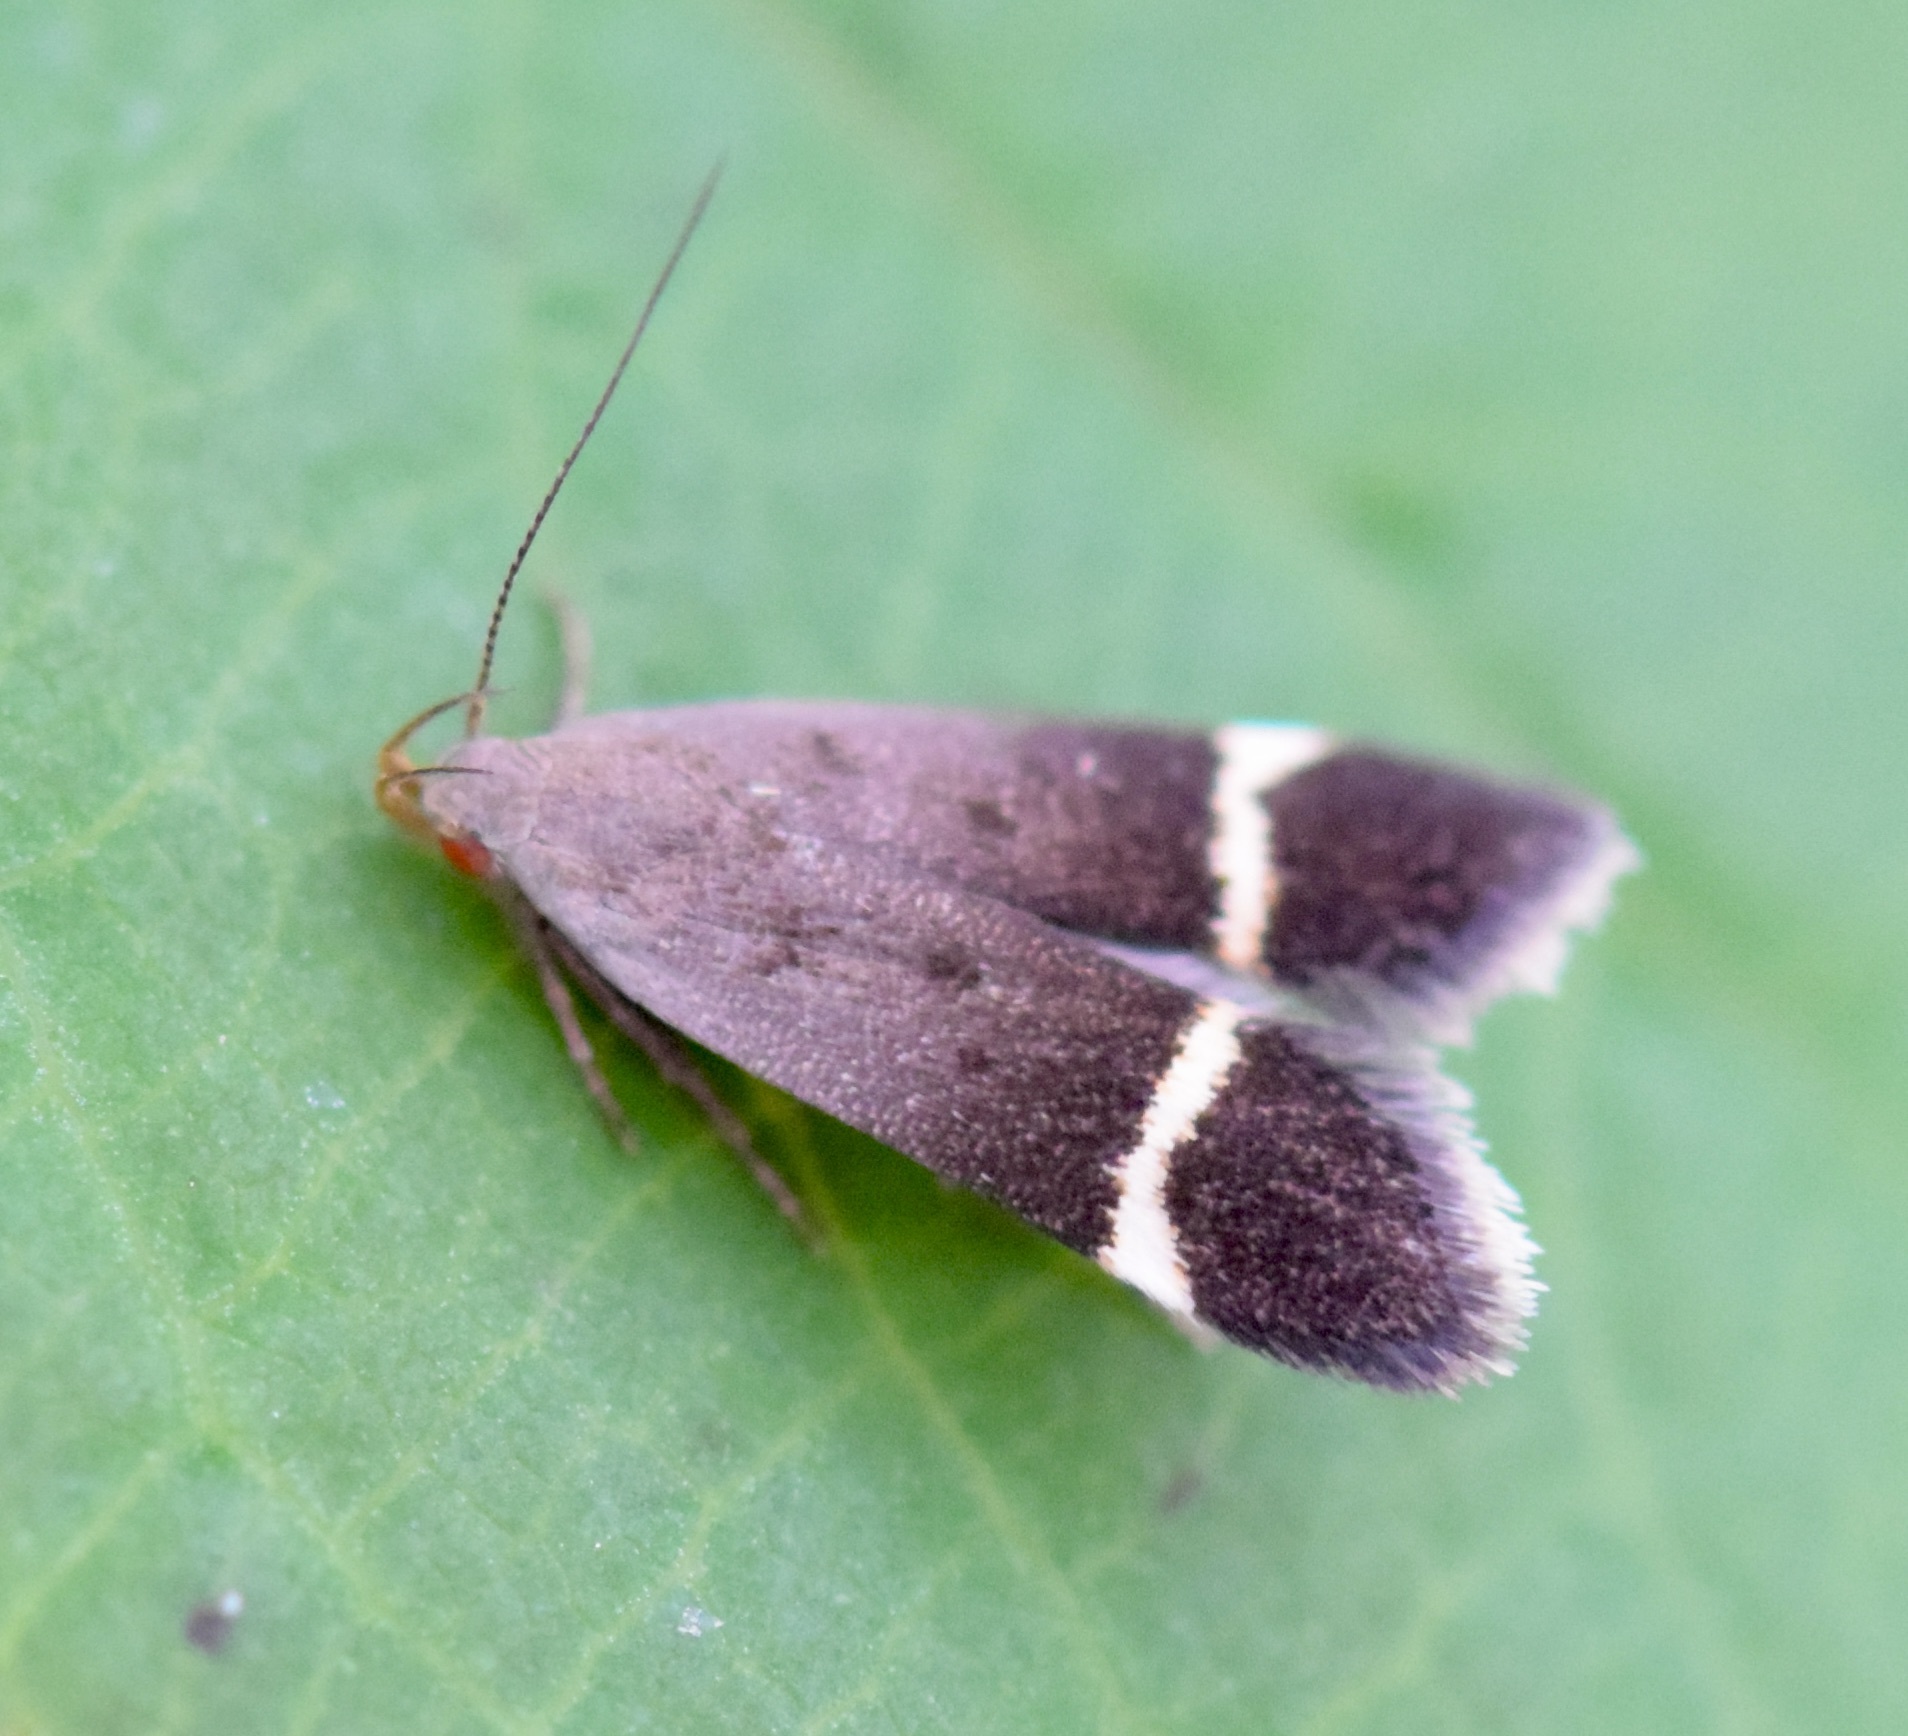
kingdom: Animalia
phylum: Arthropoda
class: Insecta
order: Lepidoptera
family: Gelechiidae
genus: Anacampsis
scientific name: Anacampsis agrimoniella
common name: Agrimony anacampsis moth
